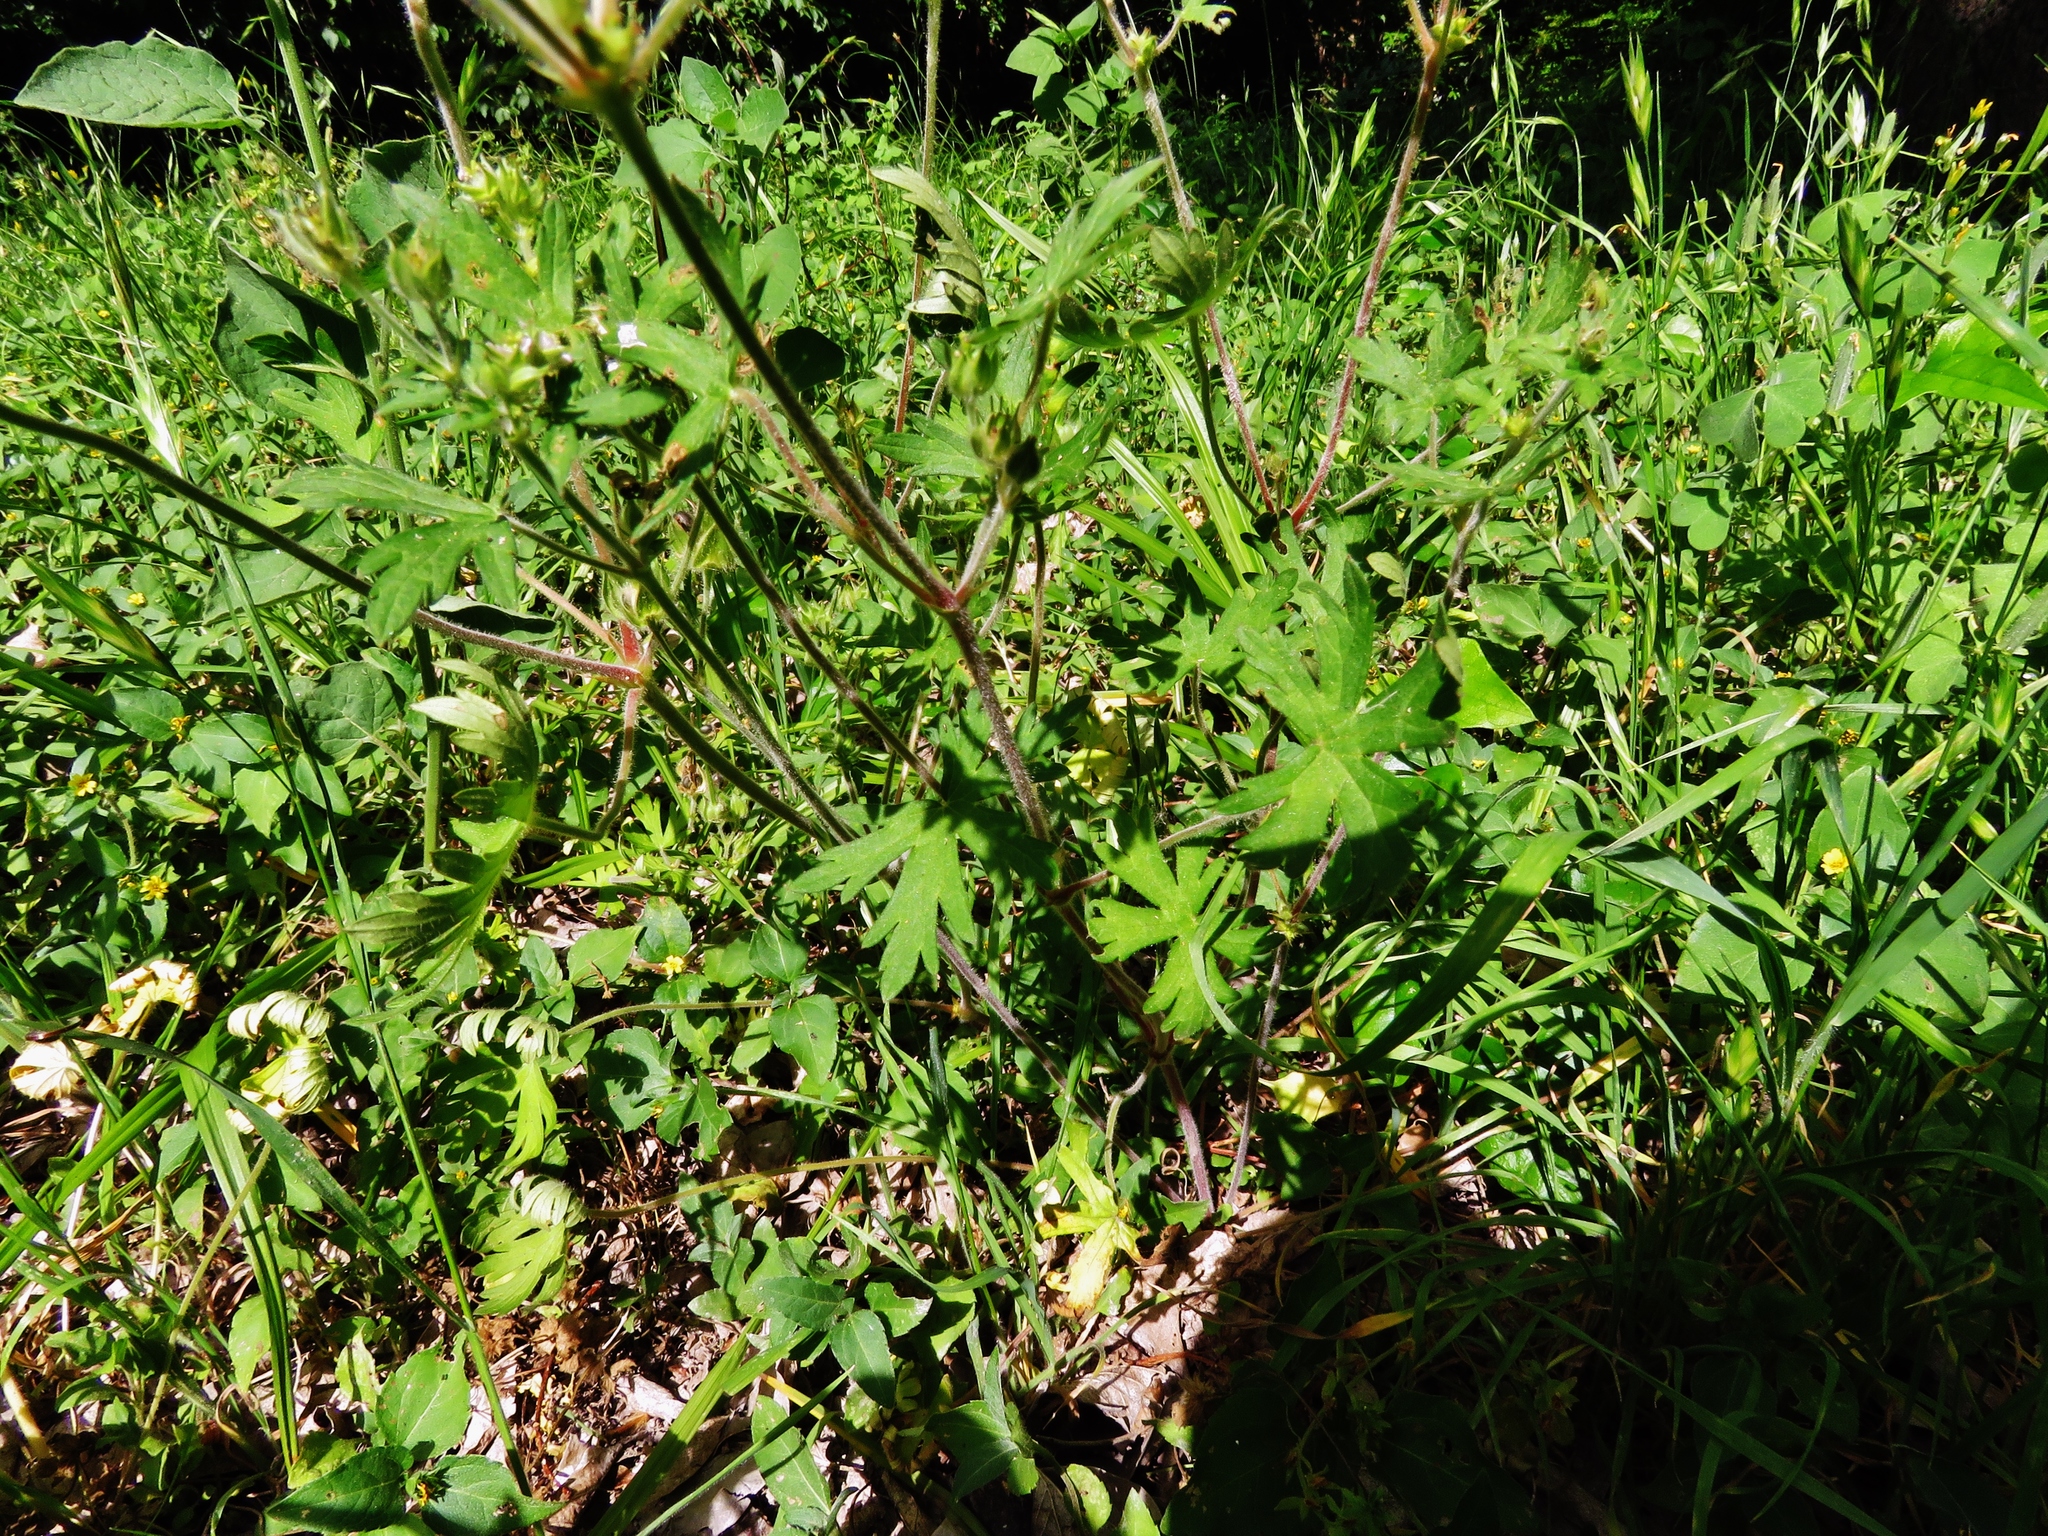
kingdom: Plantae
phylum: Tracheophyta
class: Magnoliopsida
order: Geraniales
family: Geraniaceae
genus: Geranium
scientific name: Geranium carolinianum
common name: Carolina crane's-bill
